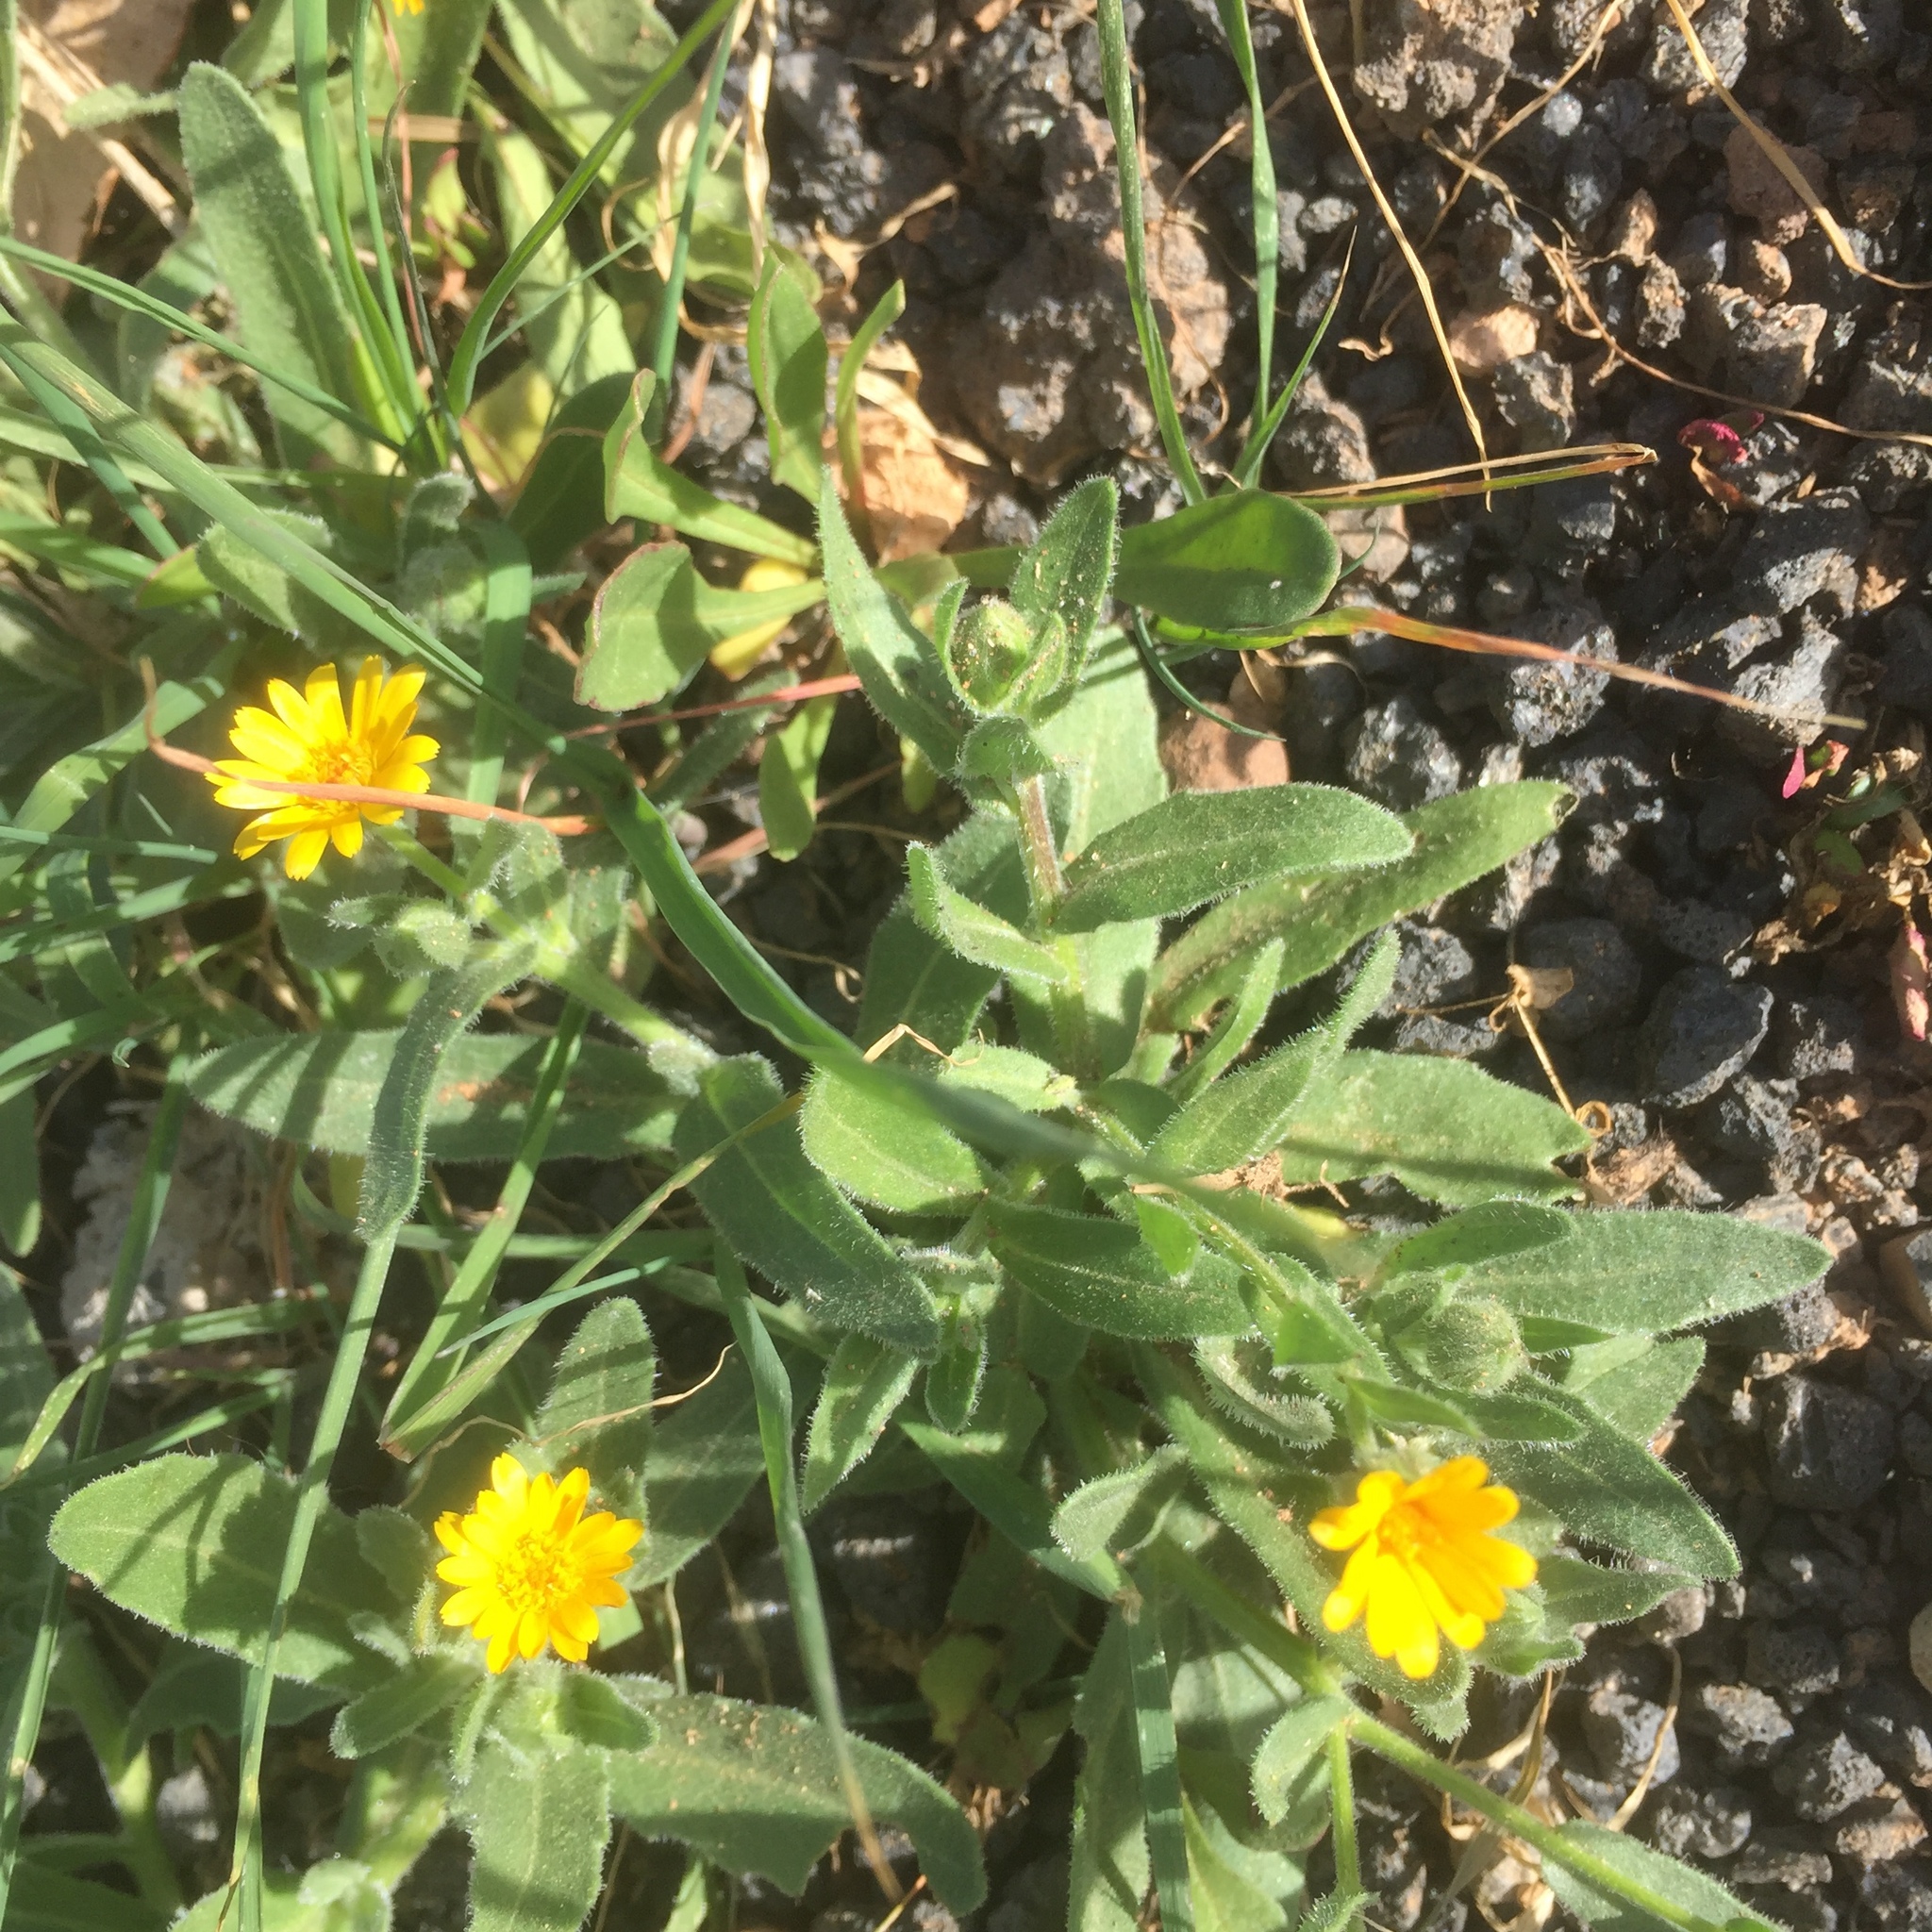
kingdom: Plantae
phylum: Tracheophyta
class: Magnoliopsida
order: Asterales
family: Asteraceae
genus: Calendula
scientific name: Calendula arvensis
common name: Field marigold
